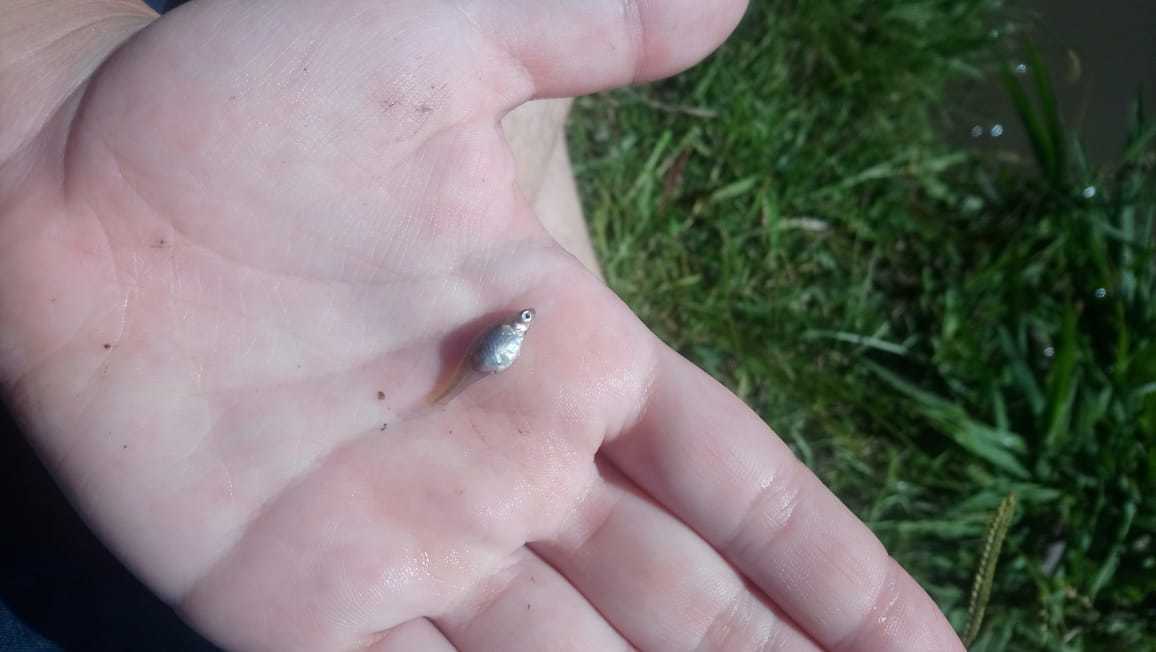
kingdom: Animalia
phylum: Chordata
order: Cyprinodontiformes
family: Poeciliidae
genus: Gambusia
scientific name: Gambusia affinis
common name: Mosquitofish
